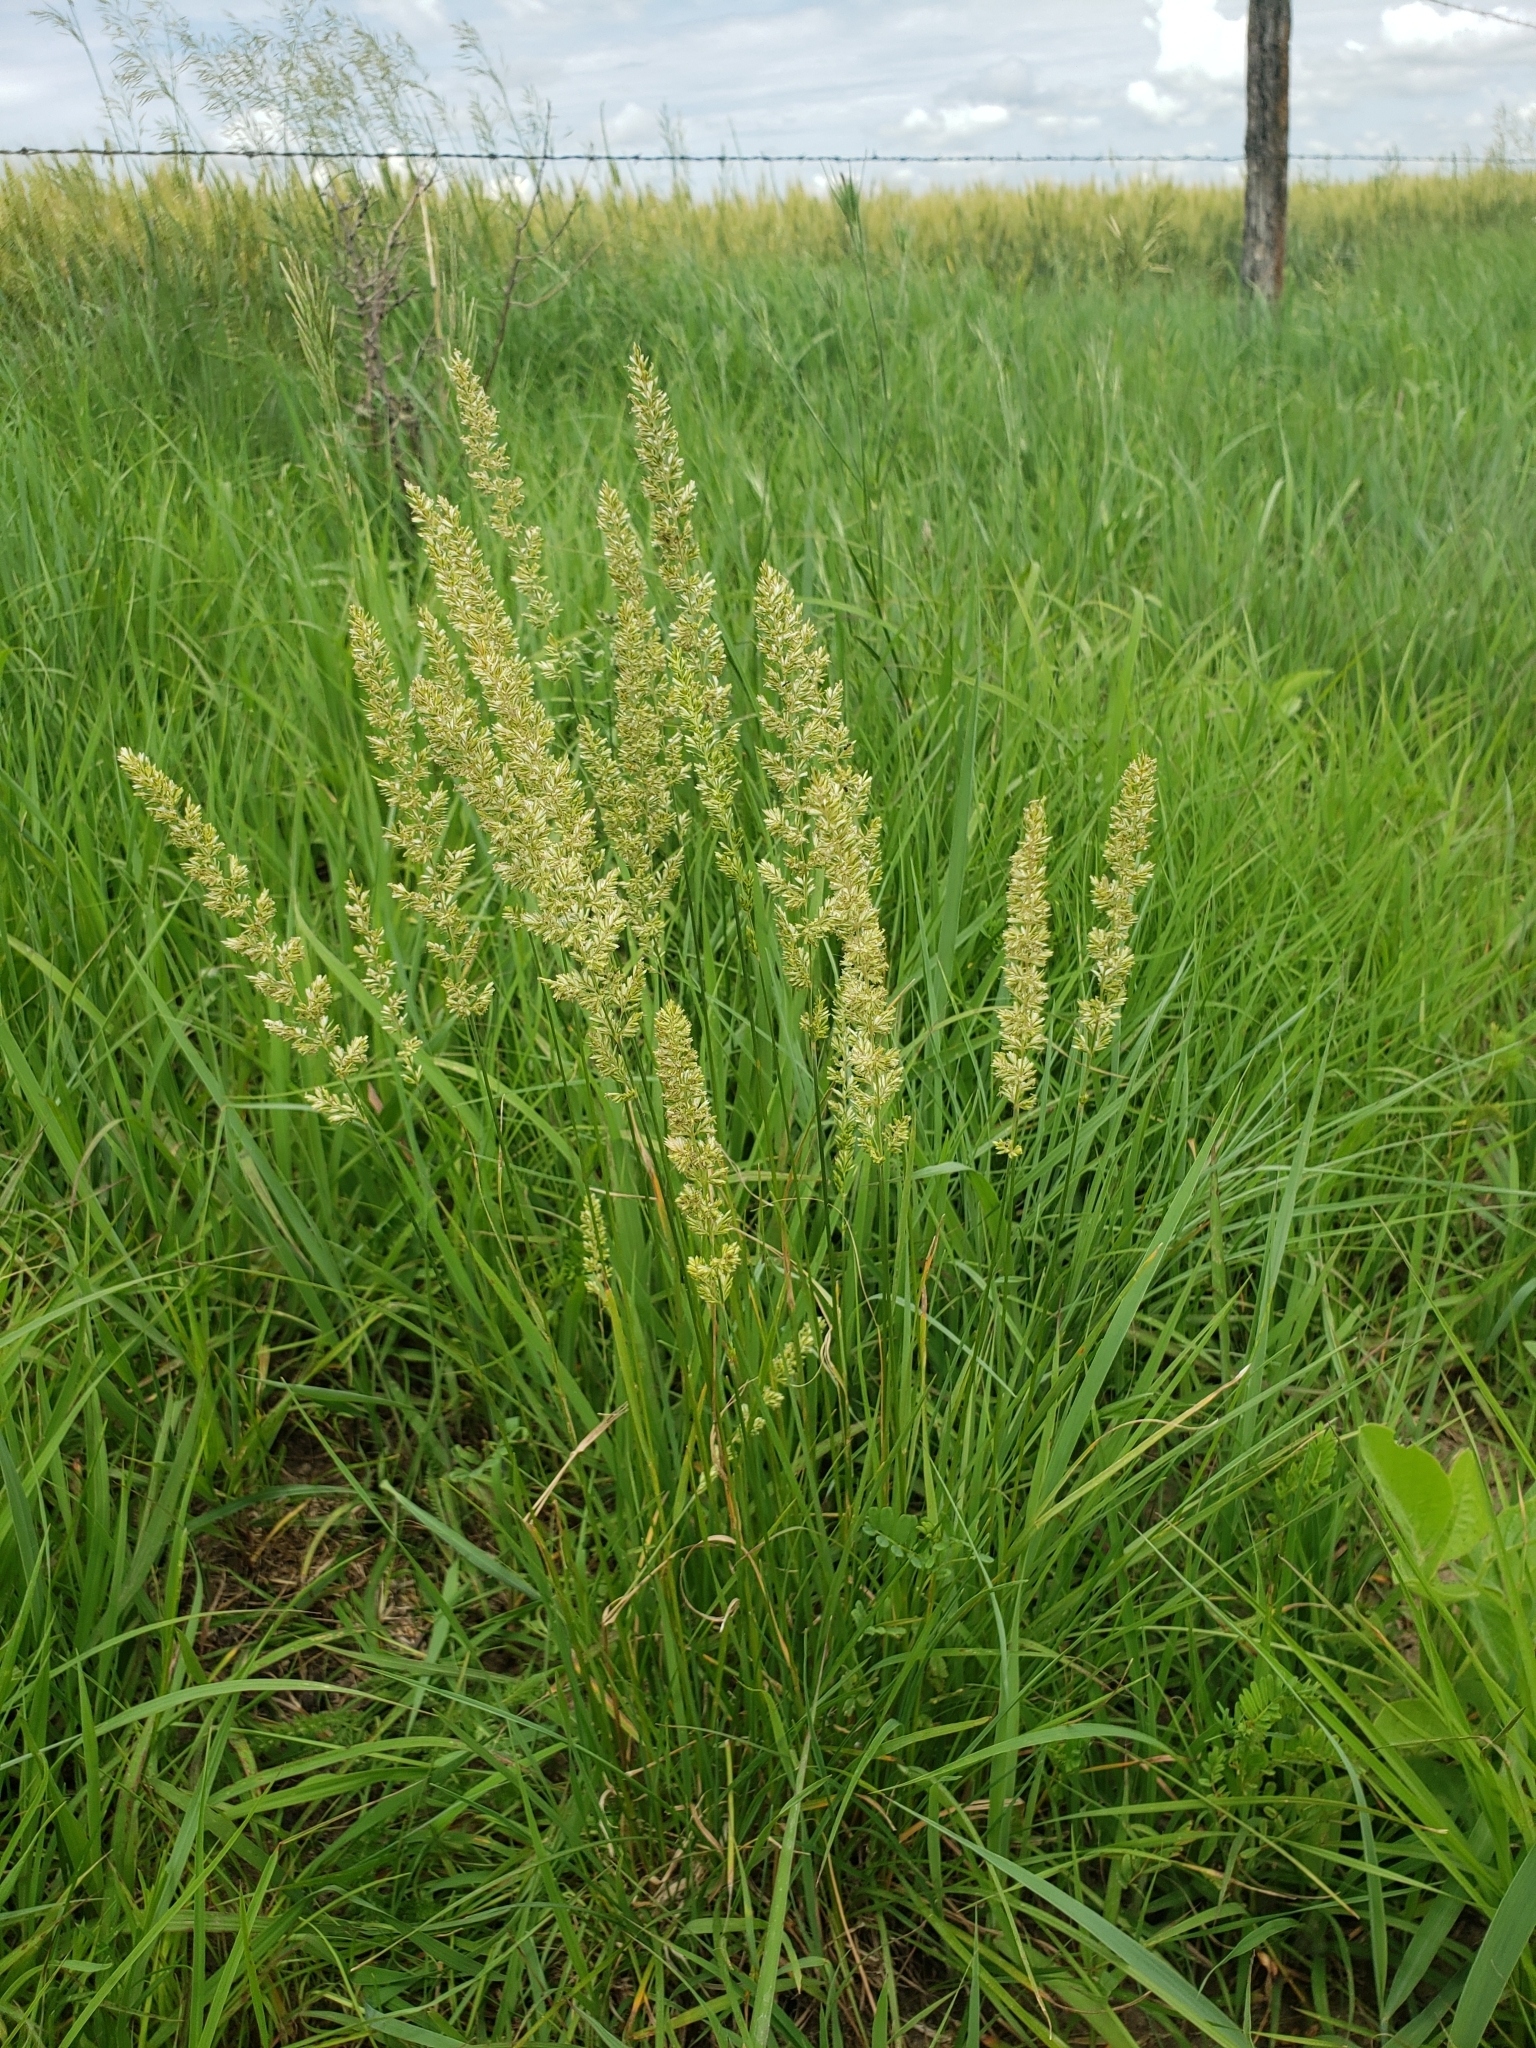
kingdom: Plantae
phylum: Tracheophyta
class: Liliopsida
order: Poales
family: Poaceae
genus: Koeleria
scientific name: Koeleria macrantha
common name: Crested hair-grass
